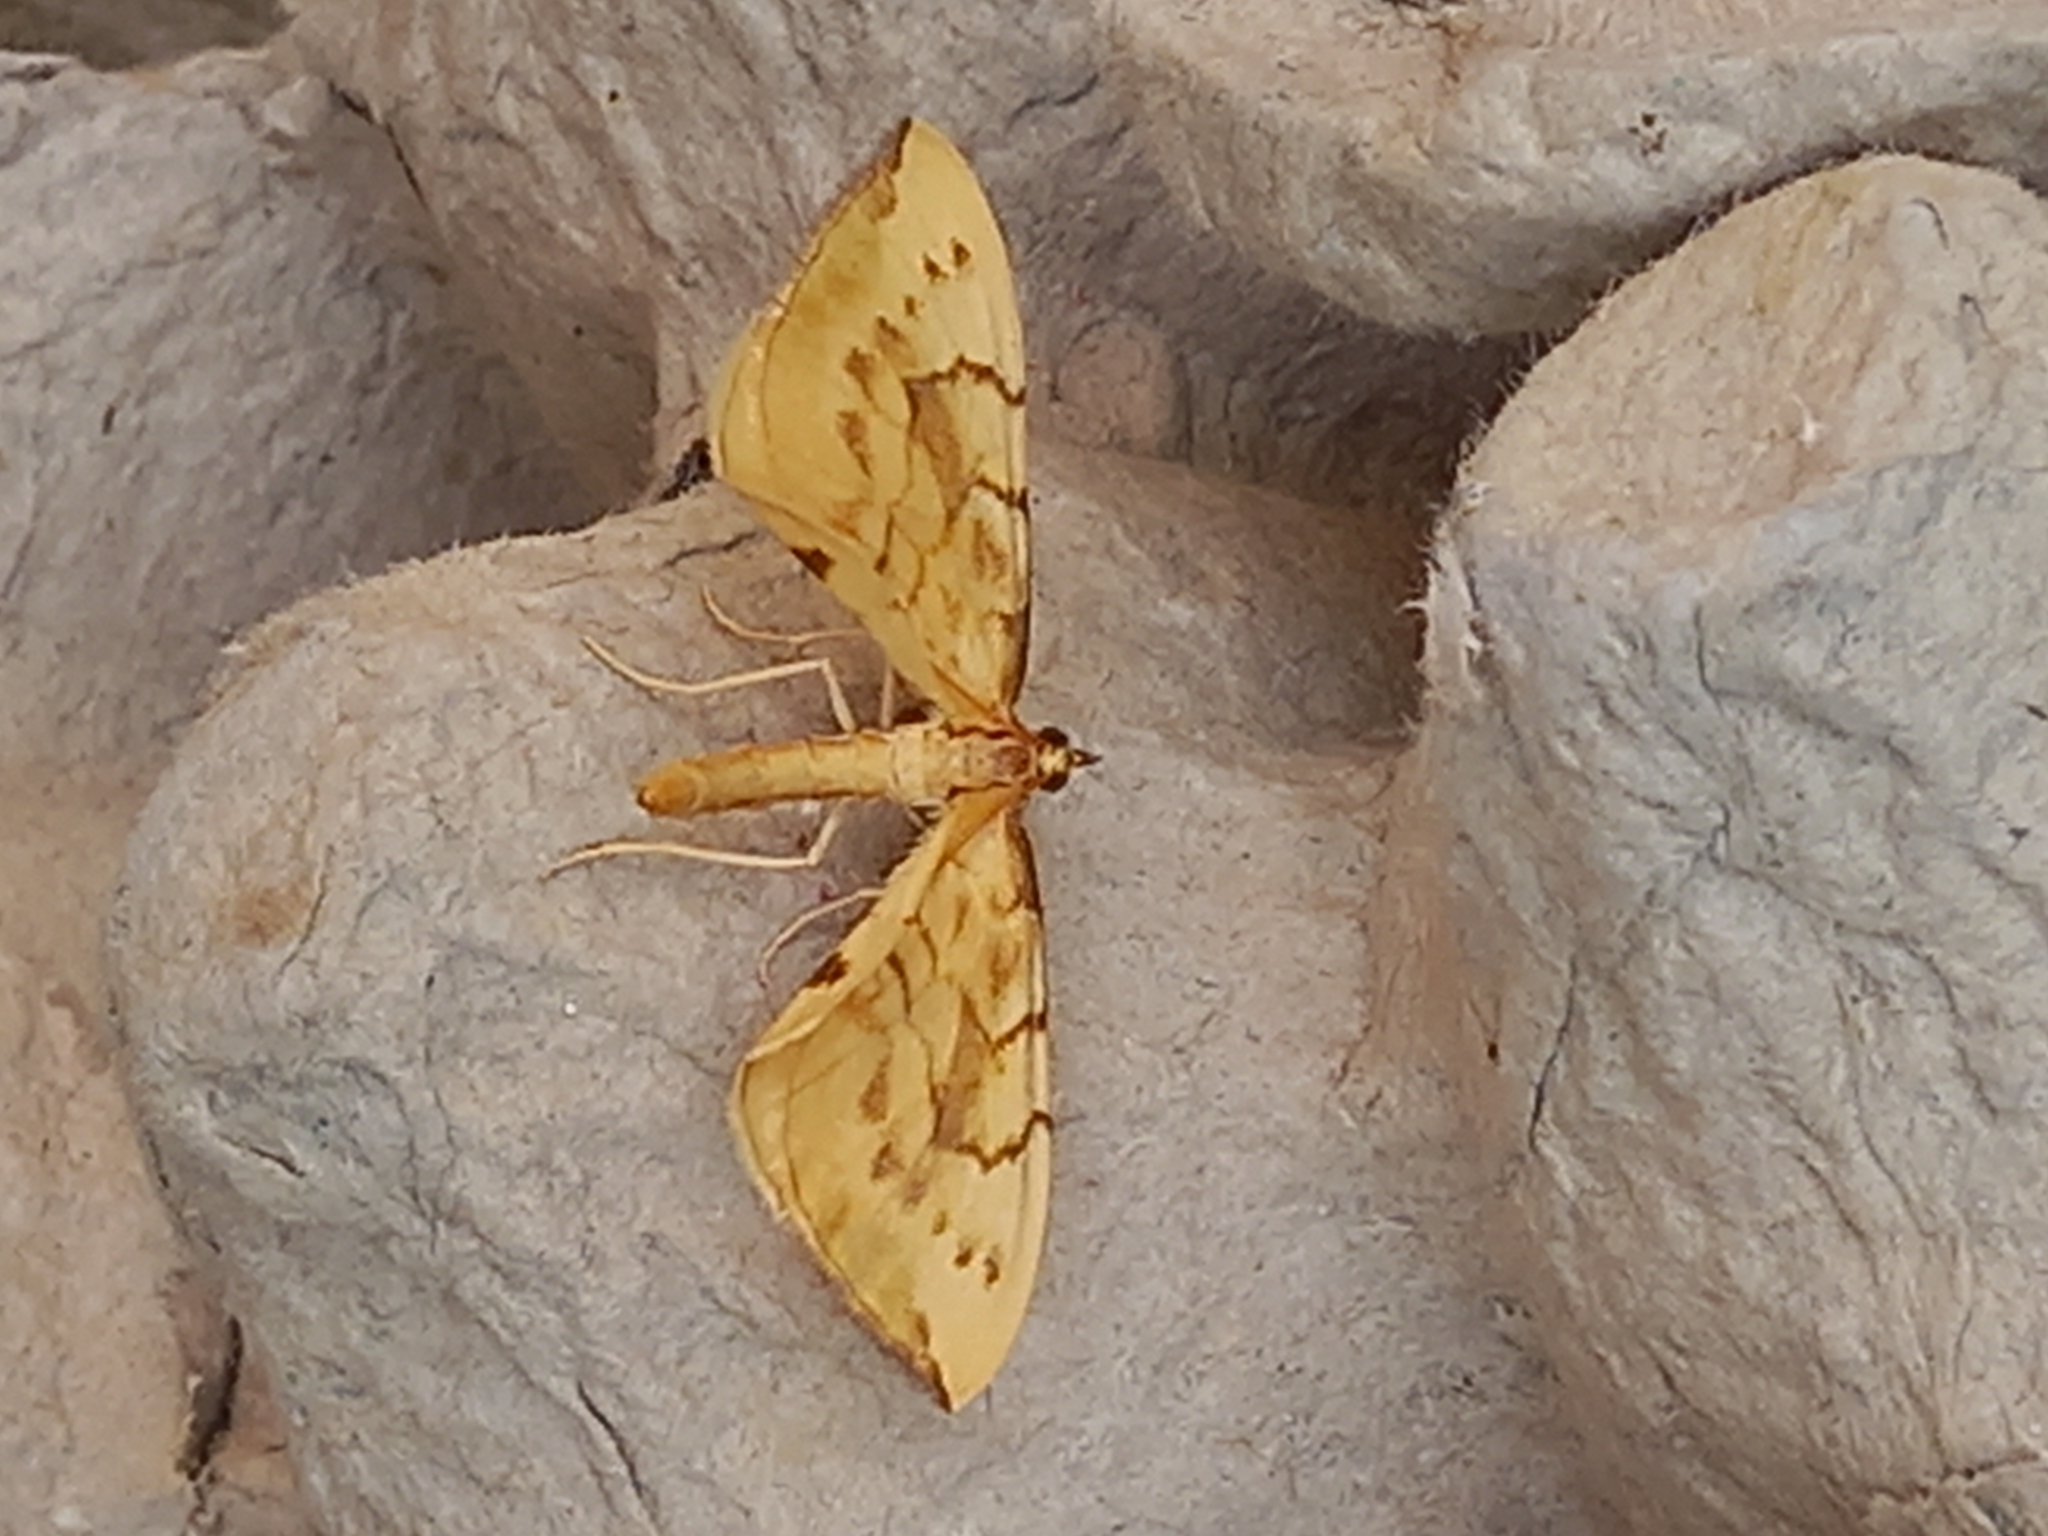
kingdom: Animalia
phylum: Arthropoda
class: Insecta
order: Lepidoptera
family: Geometridae
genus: Eulithis
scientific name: Eulithis pyraliata
